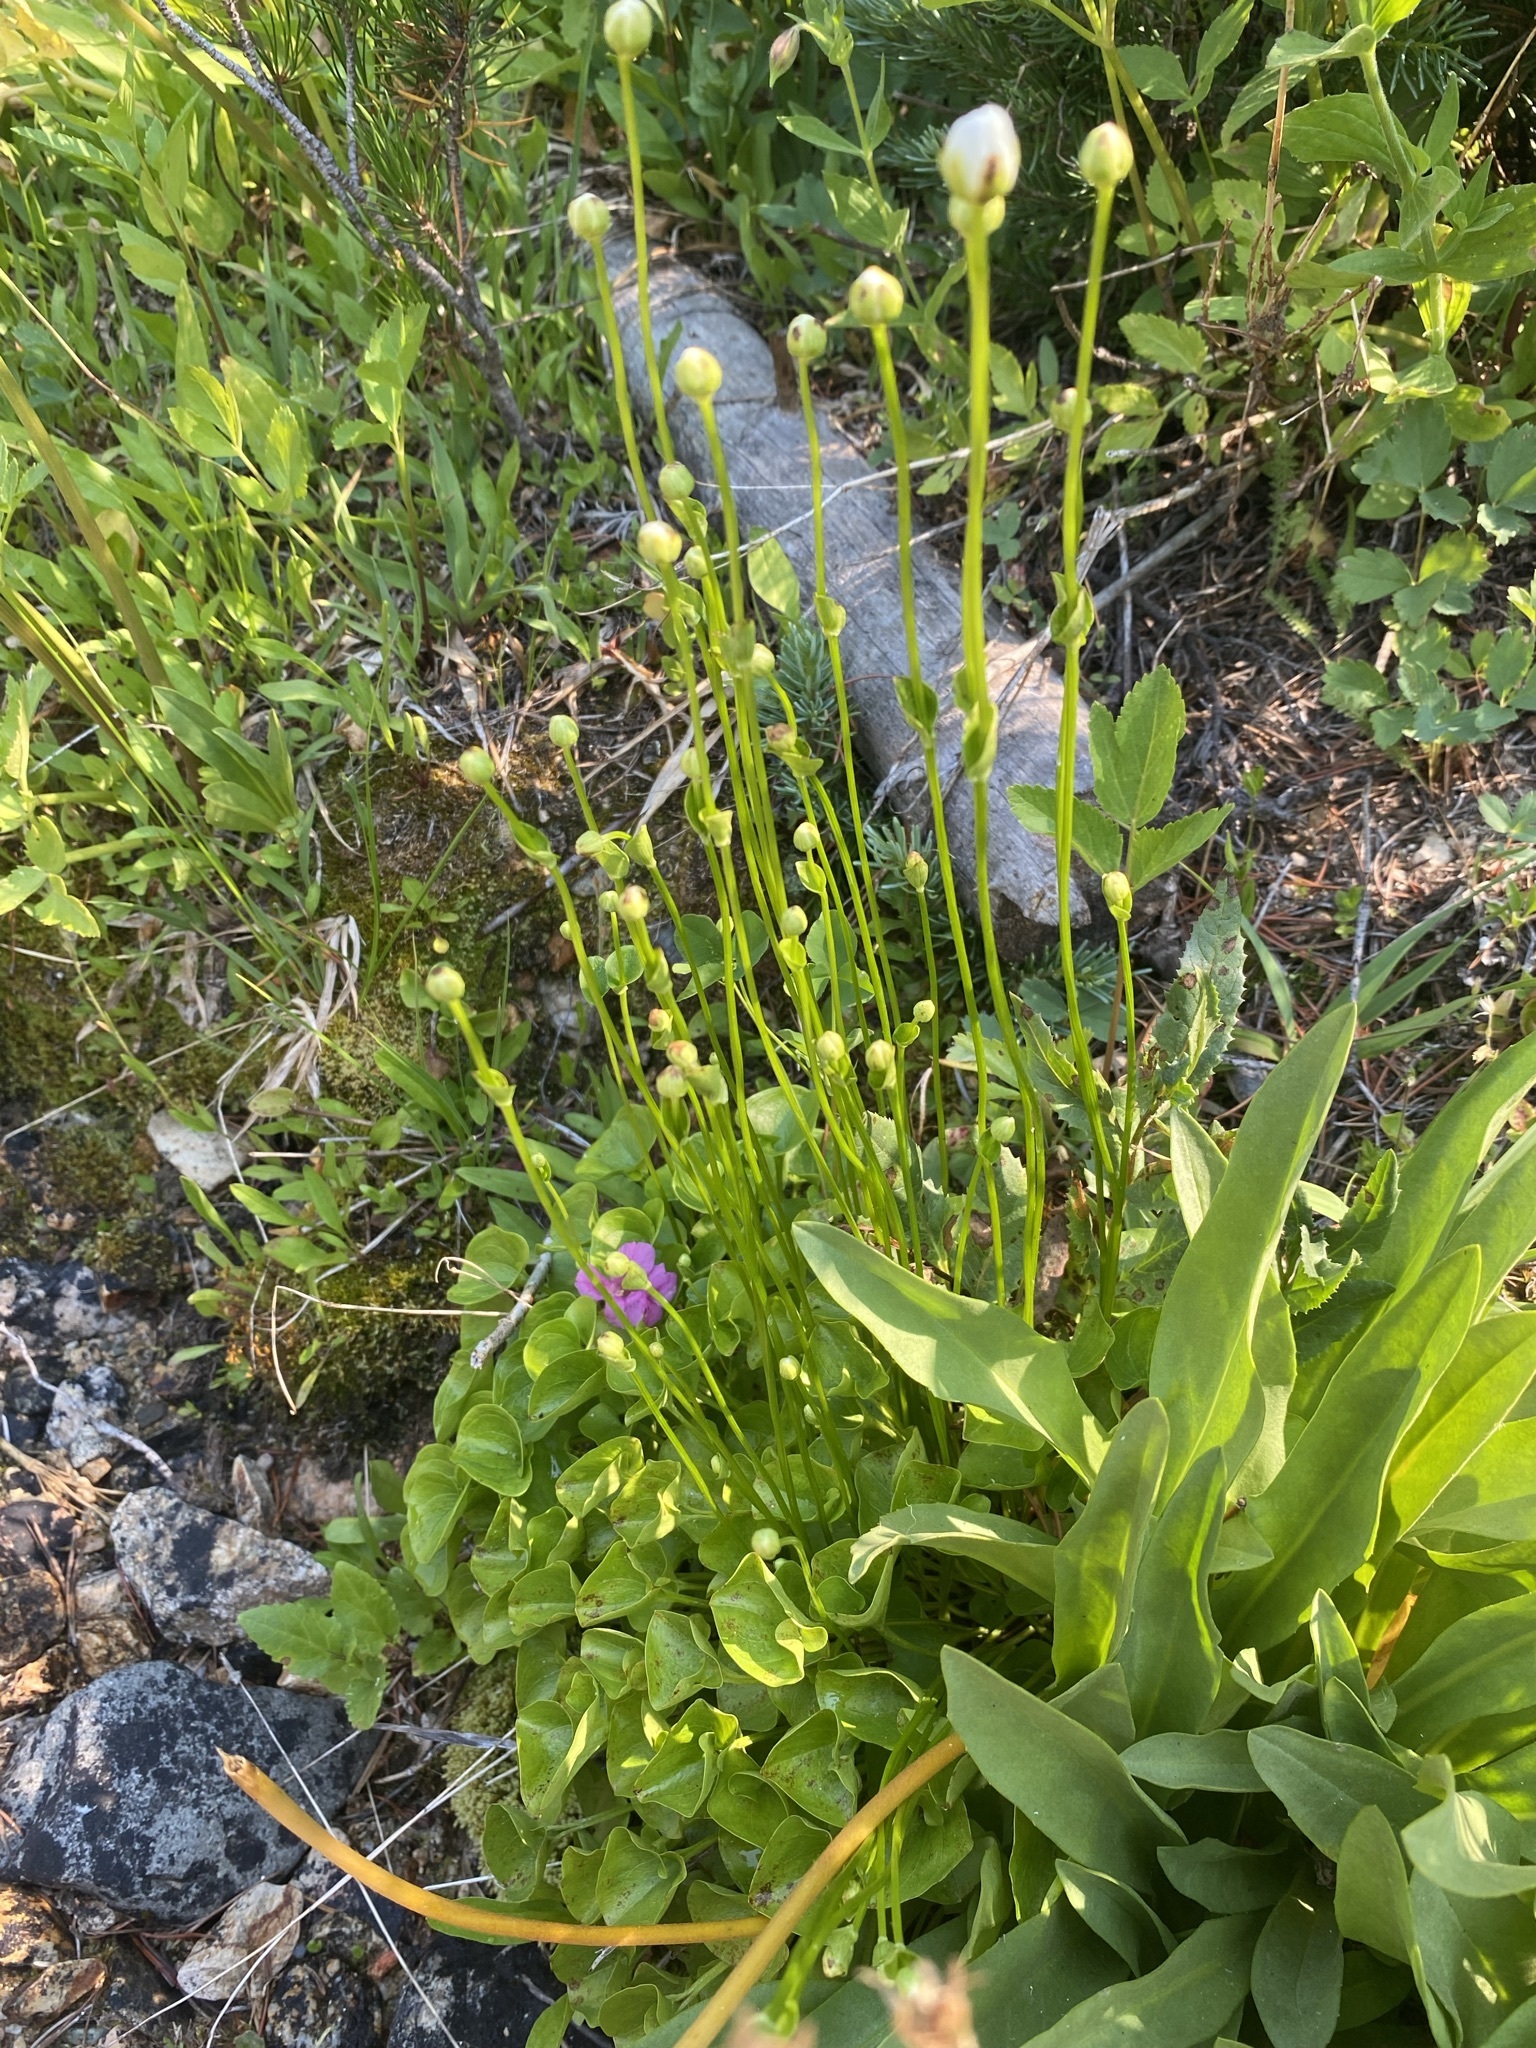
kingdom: Plantae
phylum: Tracheophyta
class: Magnoliopsida
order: Celastrales
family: Parnassiaceae
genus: Parnassia
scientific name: Parnassia fimbriata
